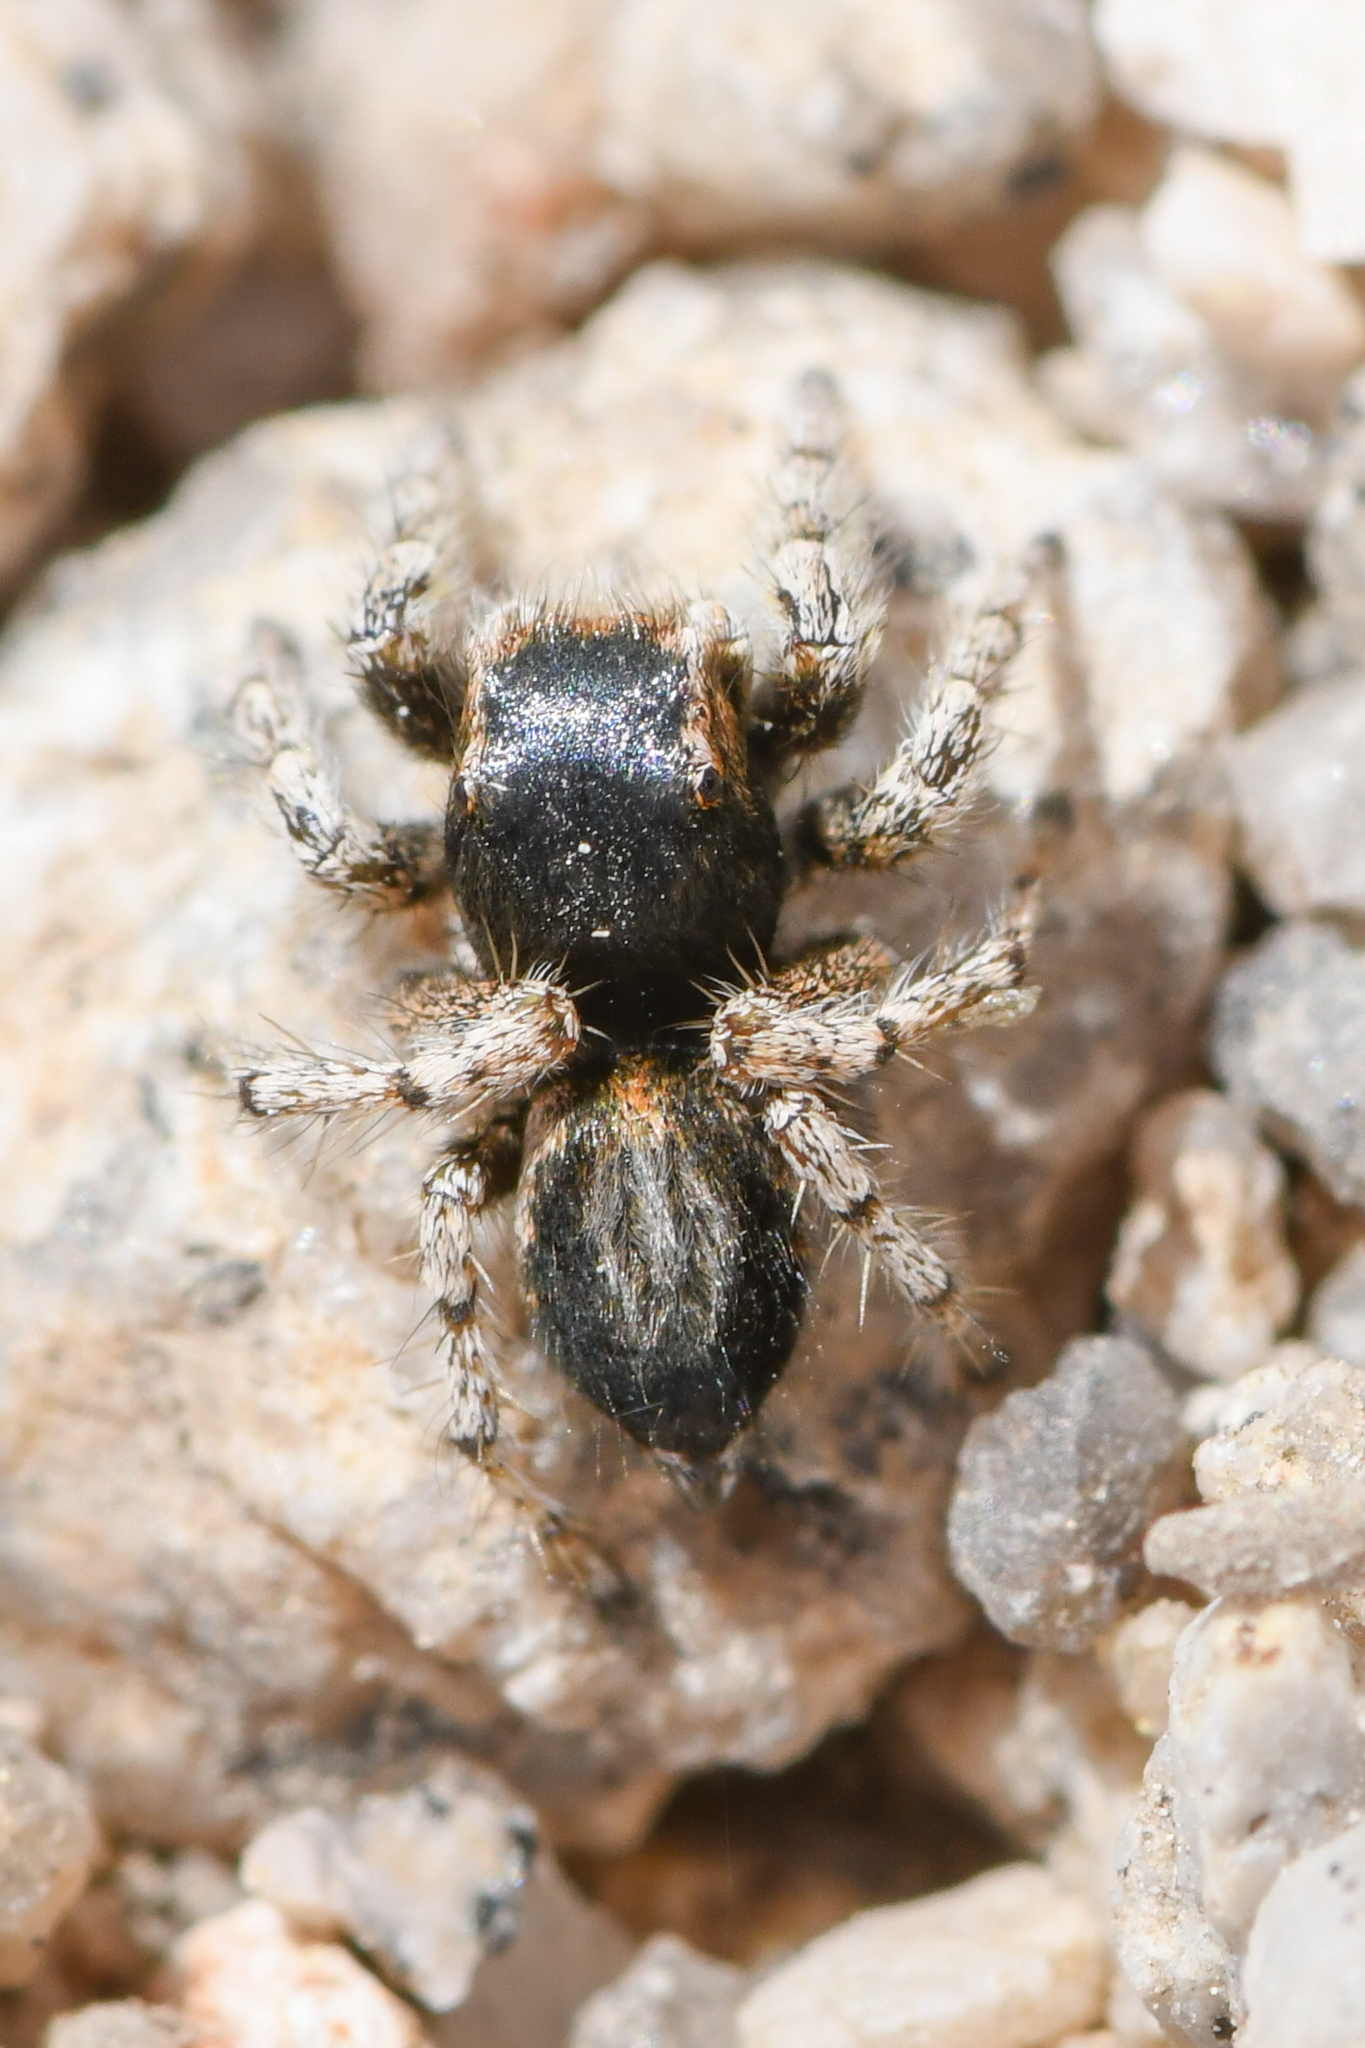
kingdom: Animalia
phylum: Arthropoda
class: Arachnida
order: Araneae
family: Salticidae
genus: Habronattus
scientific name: Habronattus amicus
